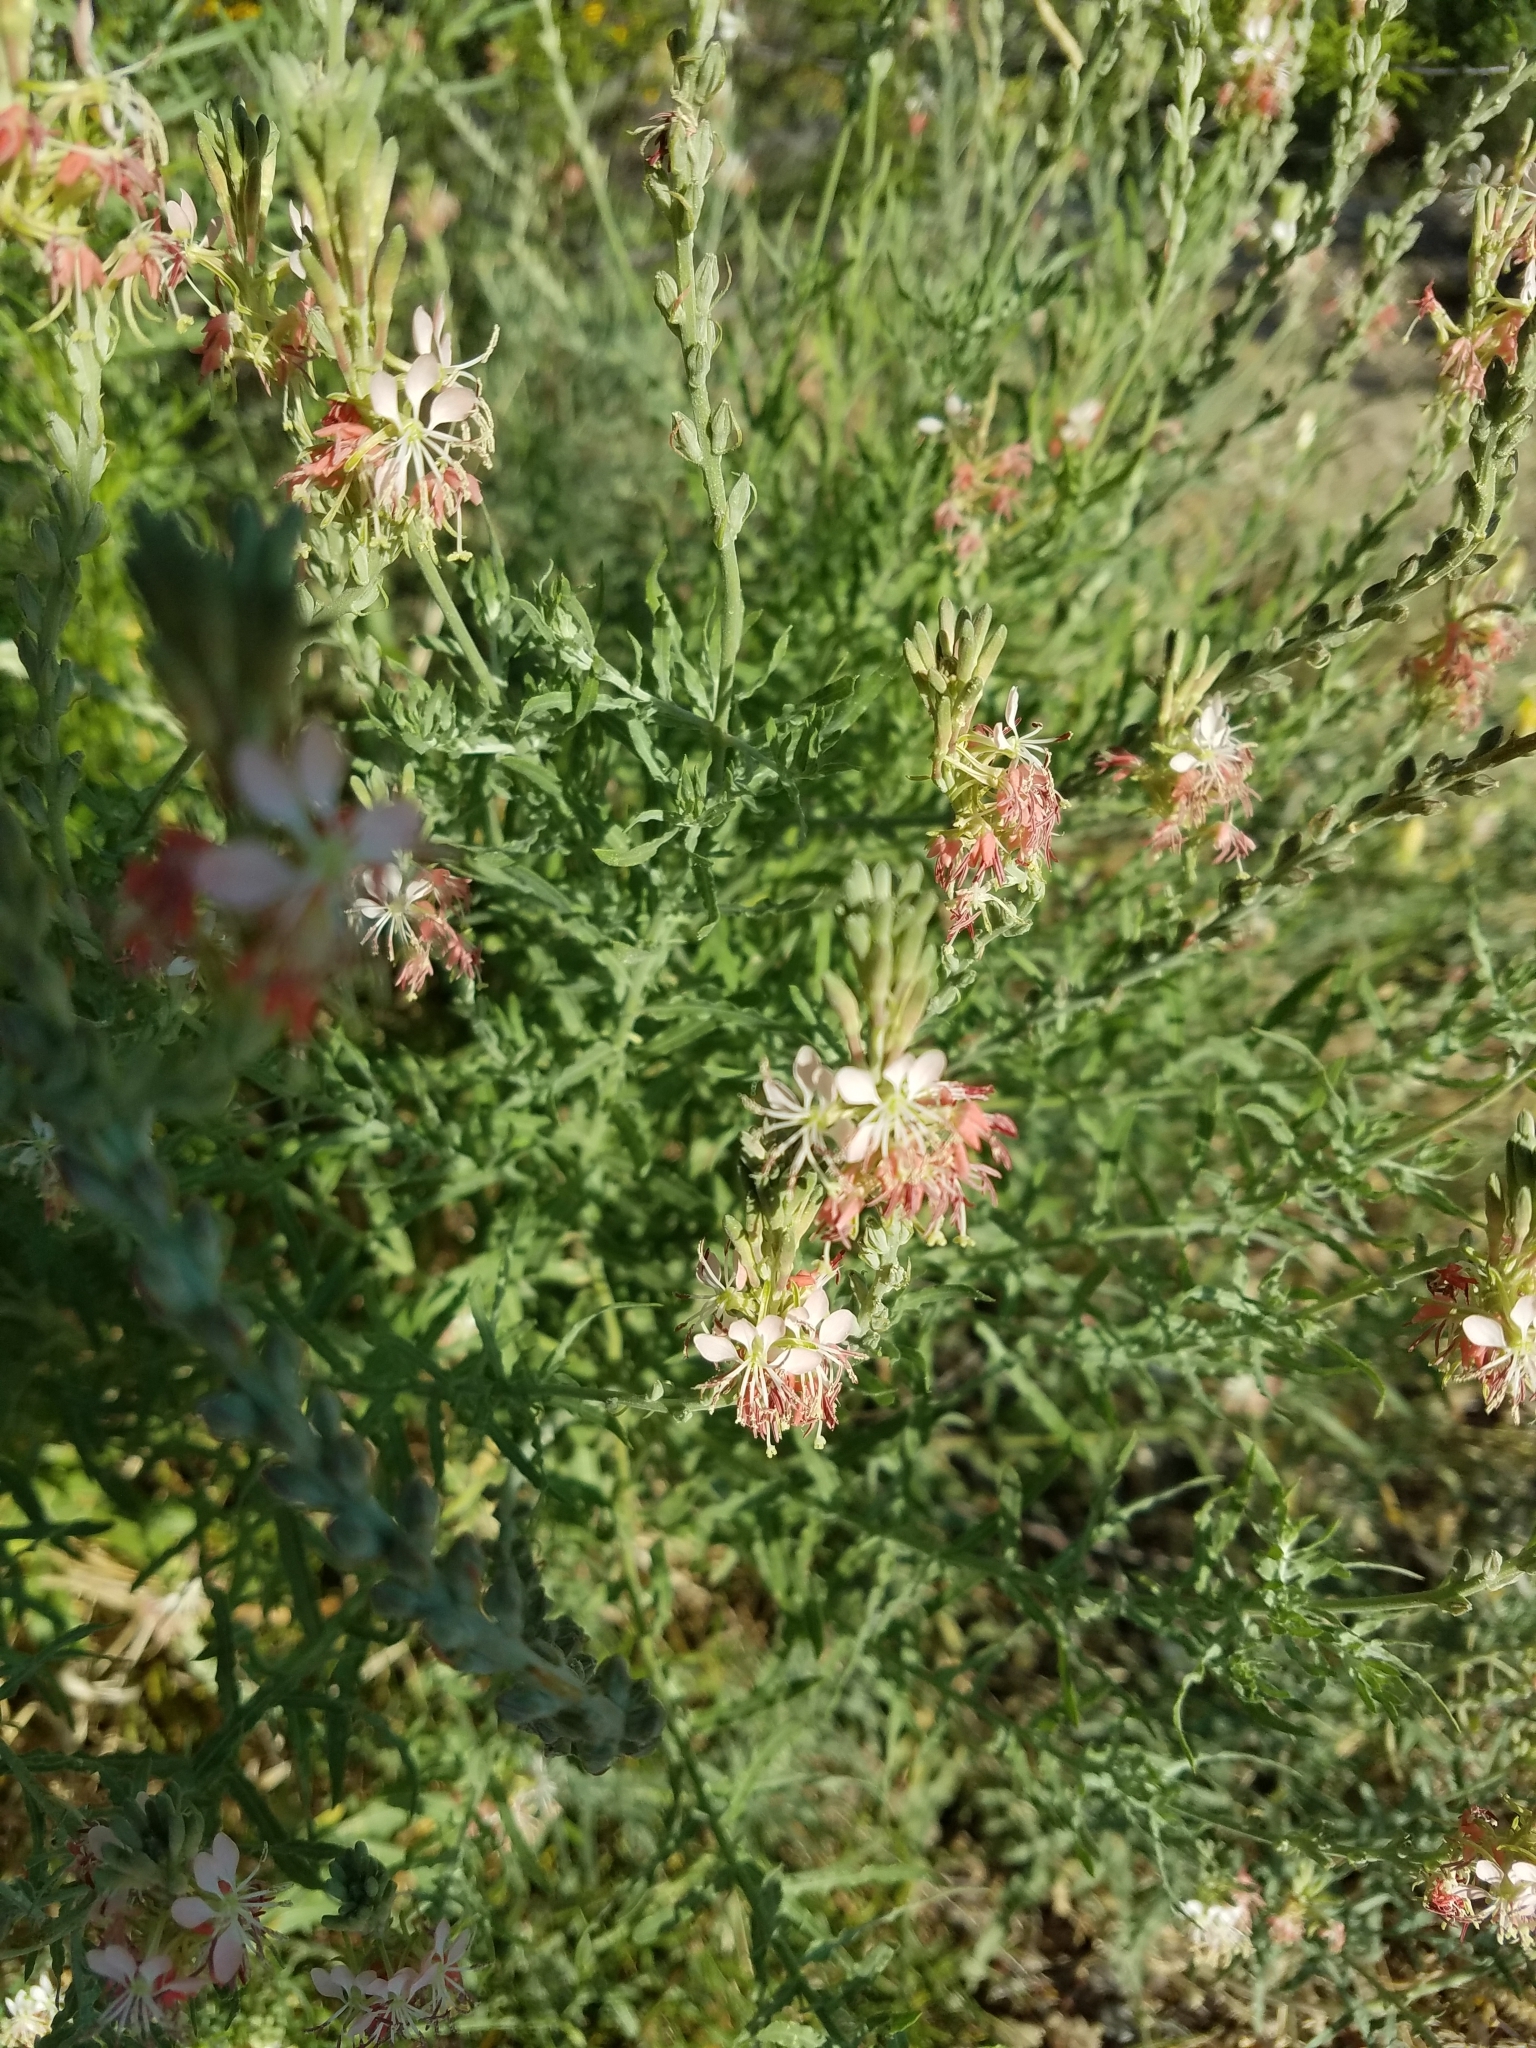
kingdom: Plantae
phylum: Tracheophyta
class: Magnoliopsida
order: Myrtales
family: Onagraceae
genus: Oenothera
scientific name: Oenothera suffrutescens
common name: Scarlet beeblossom
